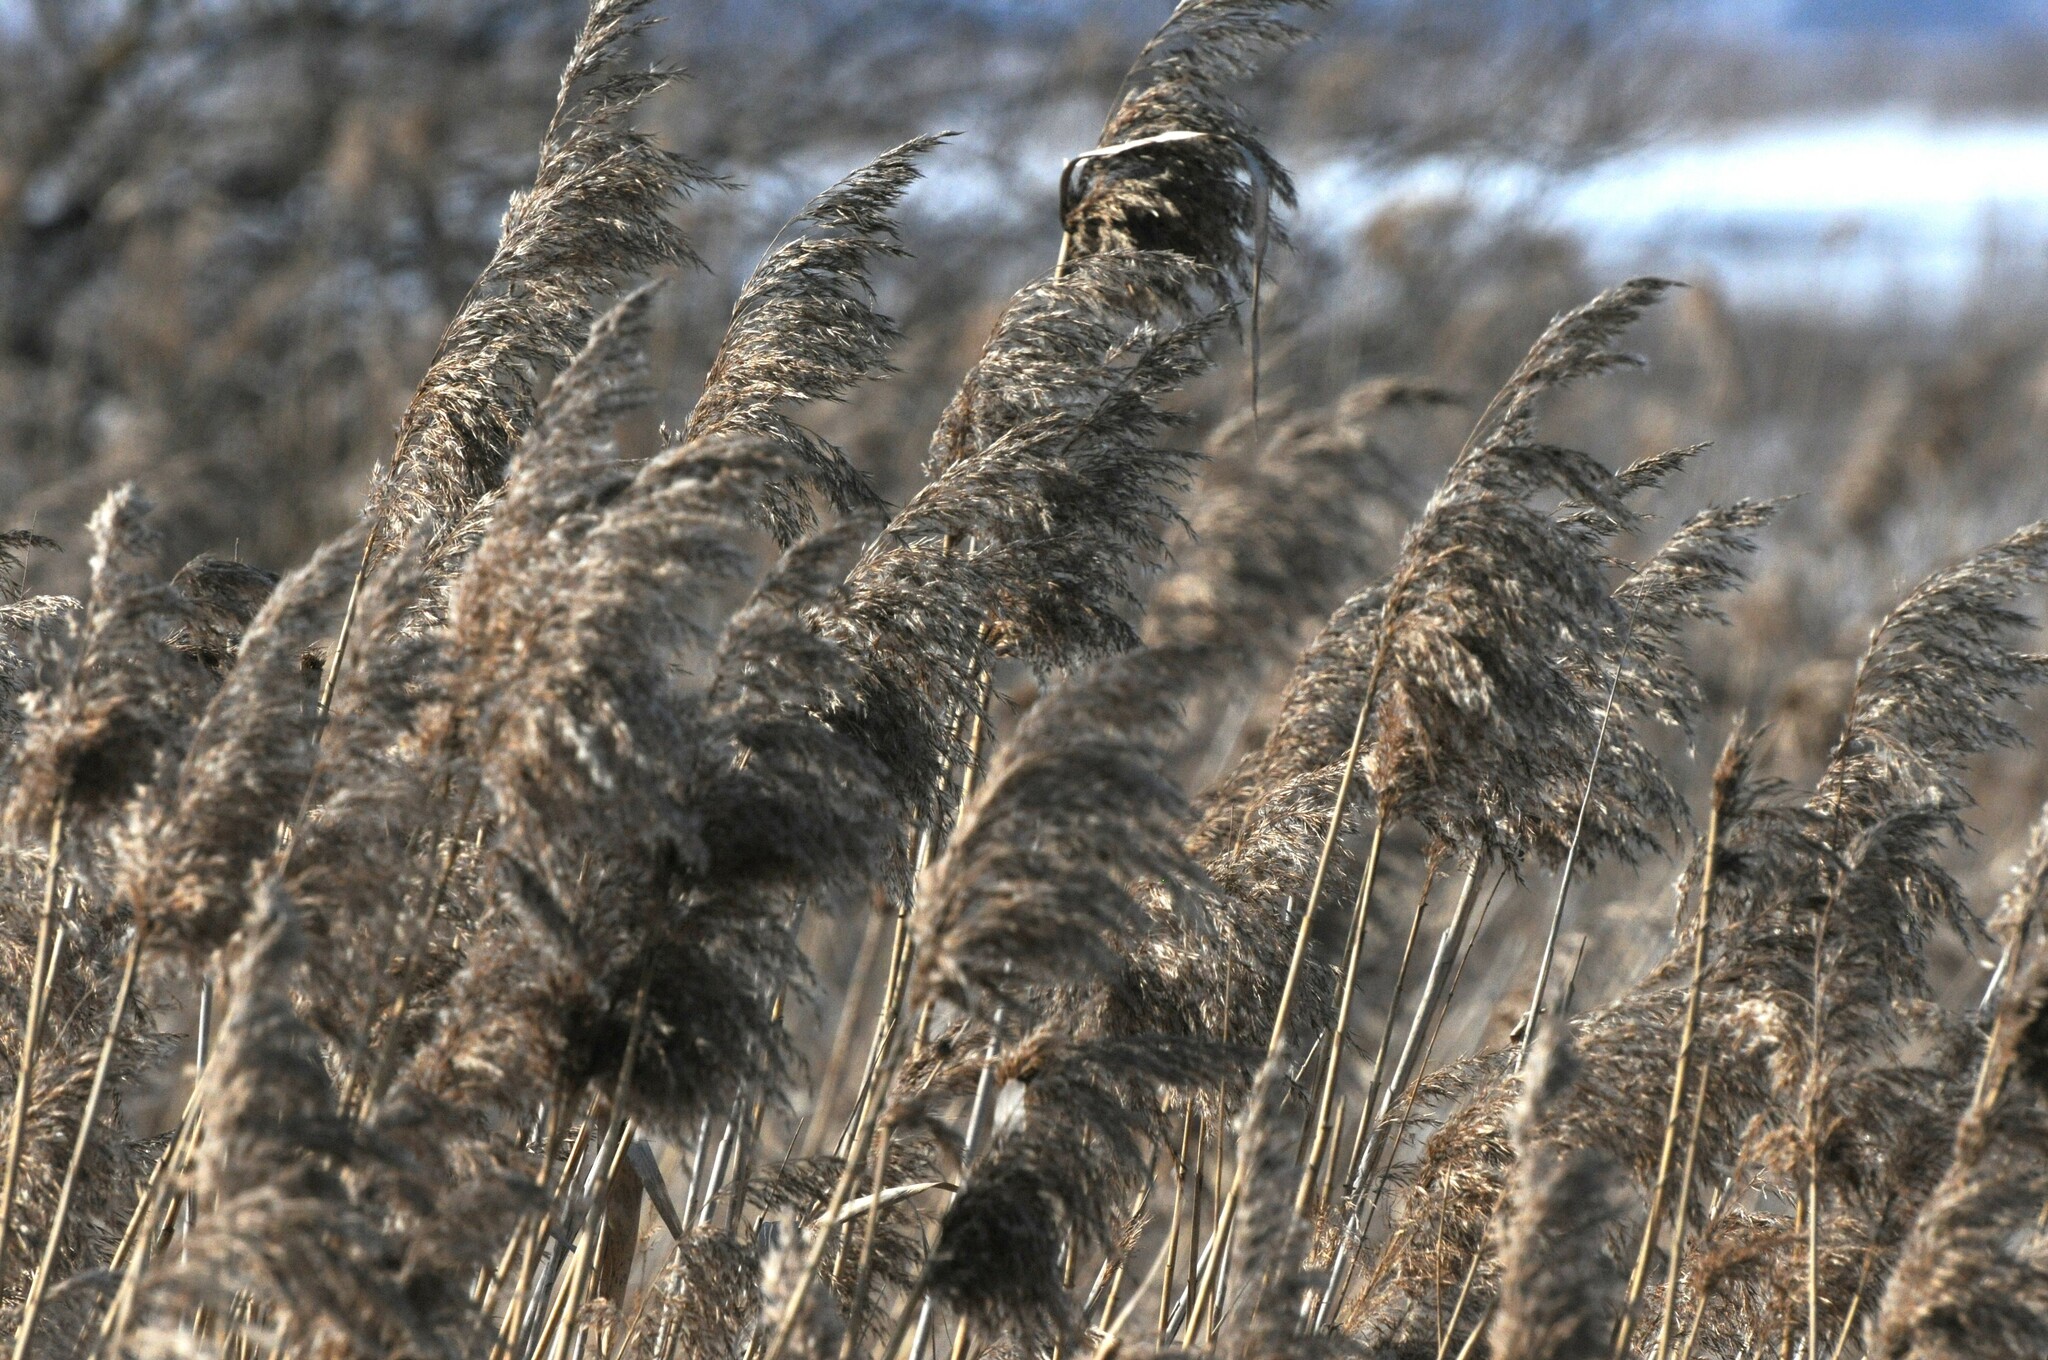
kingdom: Plantae
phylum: Tracheophyta
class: Liliopsida
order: Poales
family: Poaceae
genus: Phragmites
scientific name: Phragmites australis
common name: Common reed
